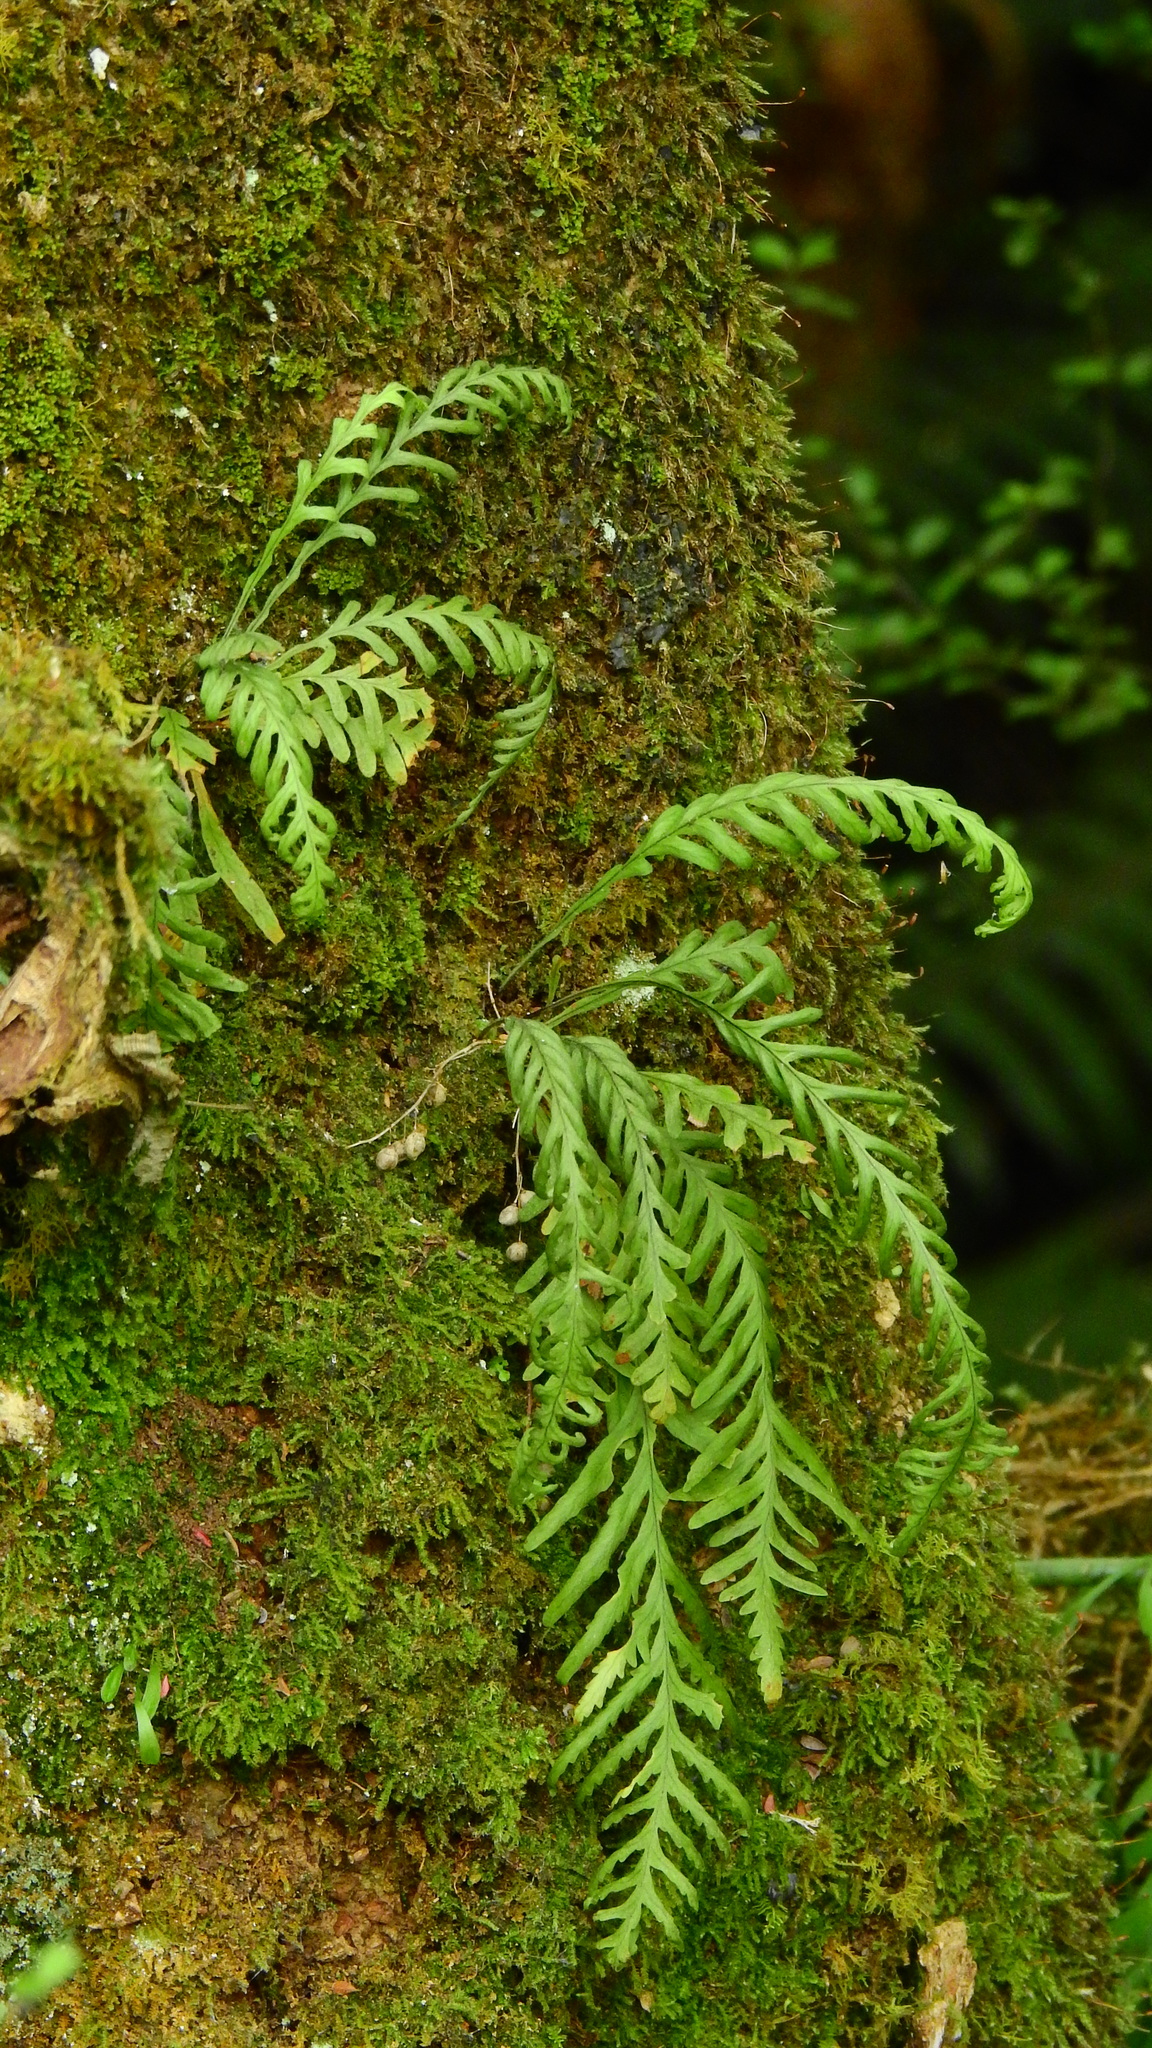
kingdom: Plantae
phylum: Tracheophyta
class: Polypodiopsida
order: Polypodiales
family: Polypodiaceae
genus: Notogrammitis
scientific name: Notogrammitis heterophylla
